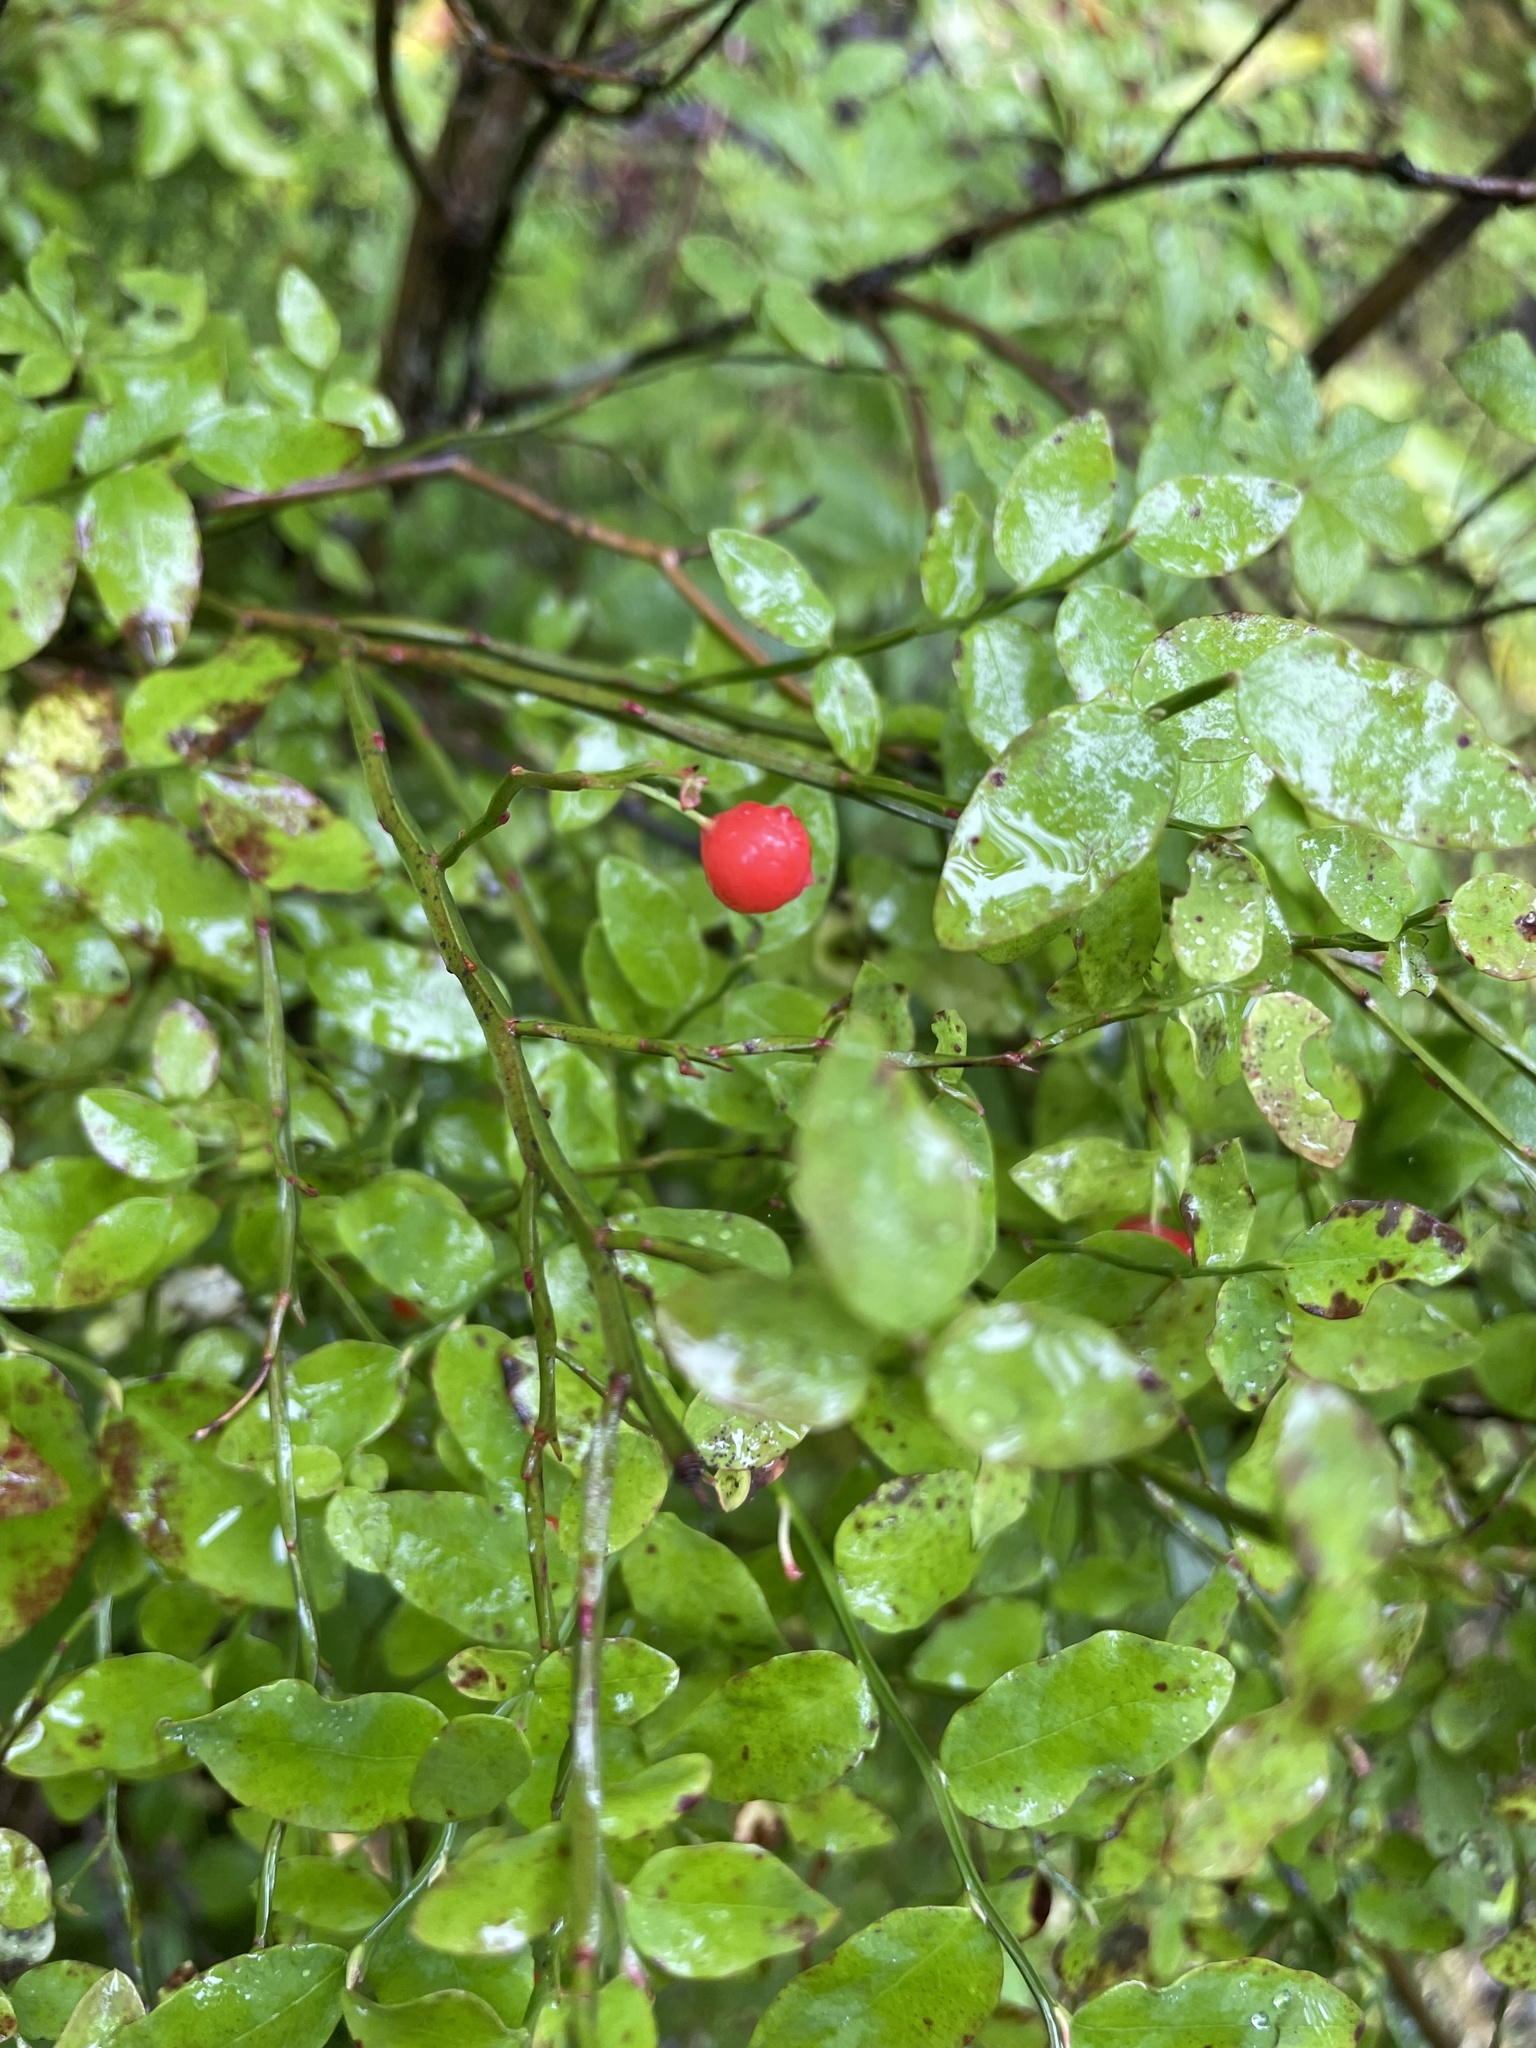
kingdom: Plantae
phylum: Tracheophyta
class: Magnoliopsida
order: Ericales
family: Ericaceae
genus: Vaccinium
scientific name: Vaccinium parvifolium
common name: Red-huckleberry
